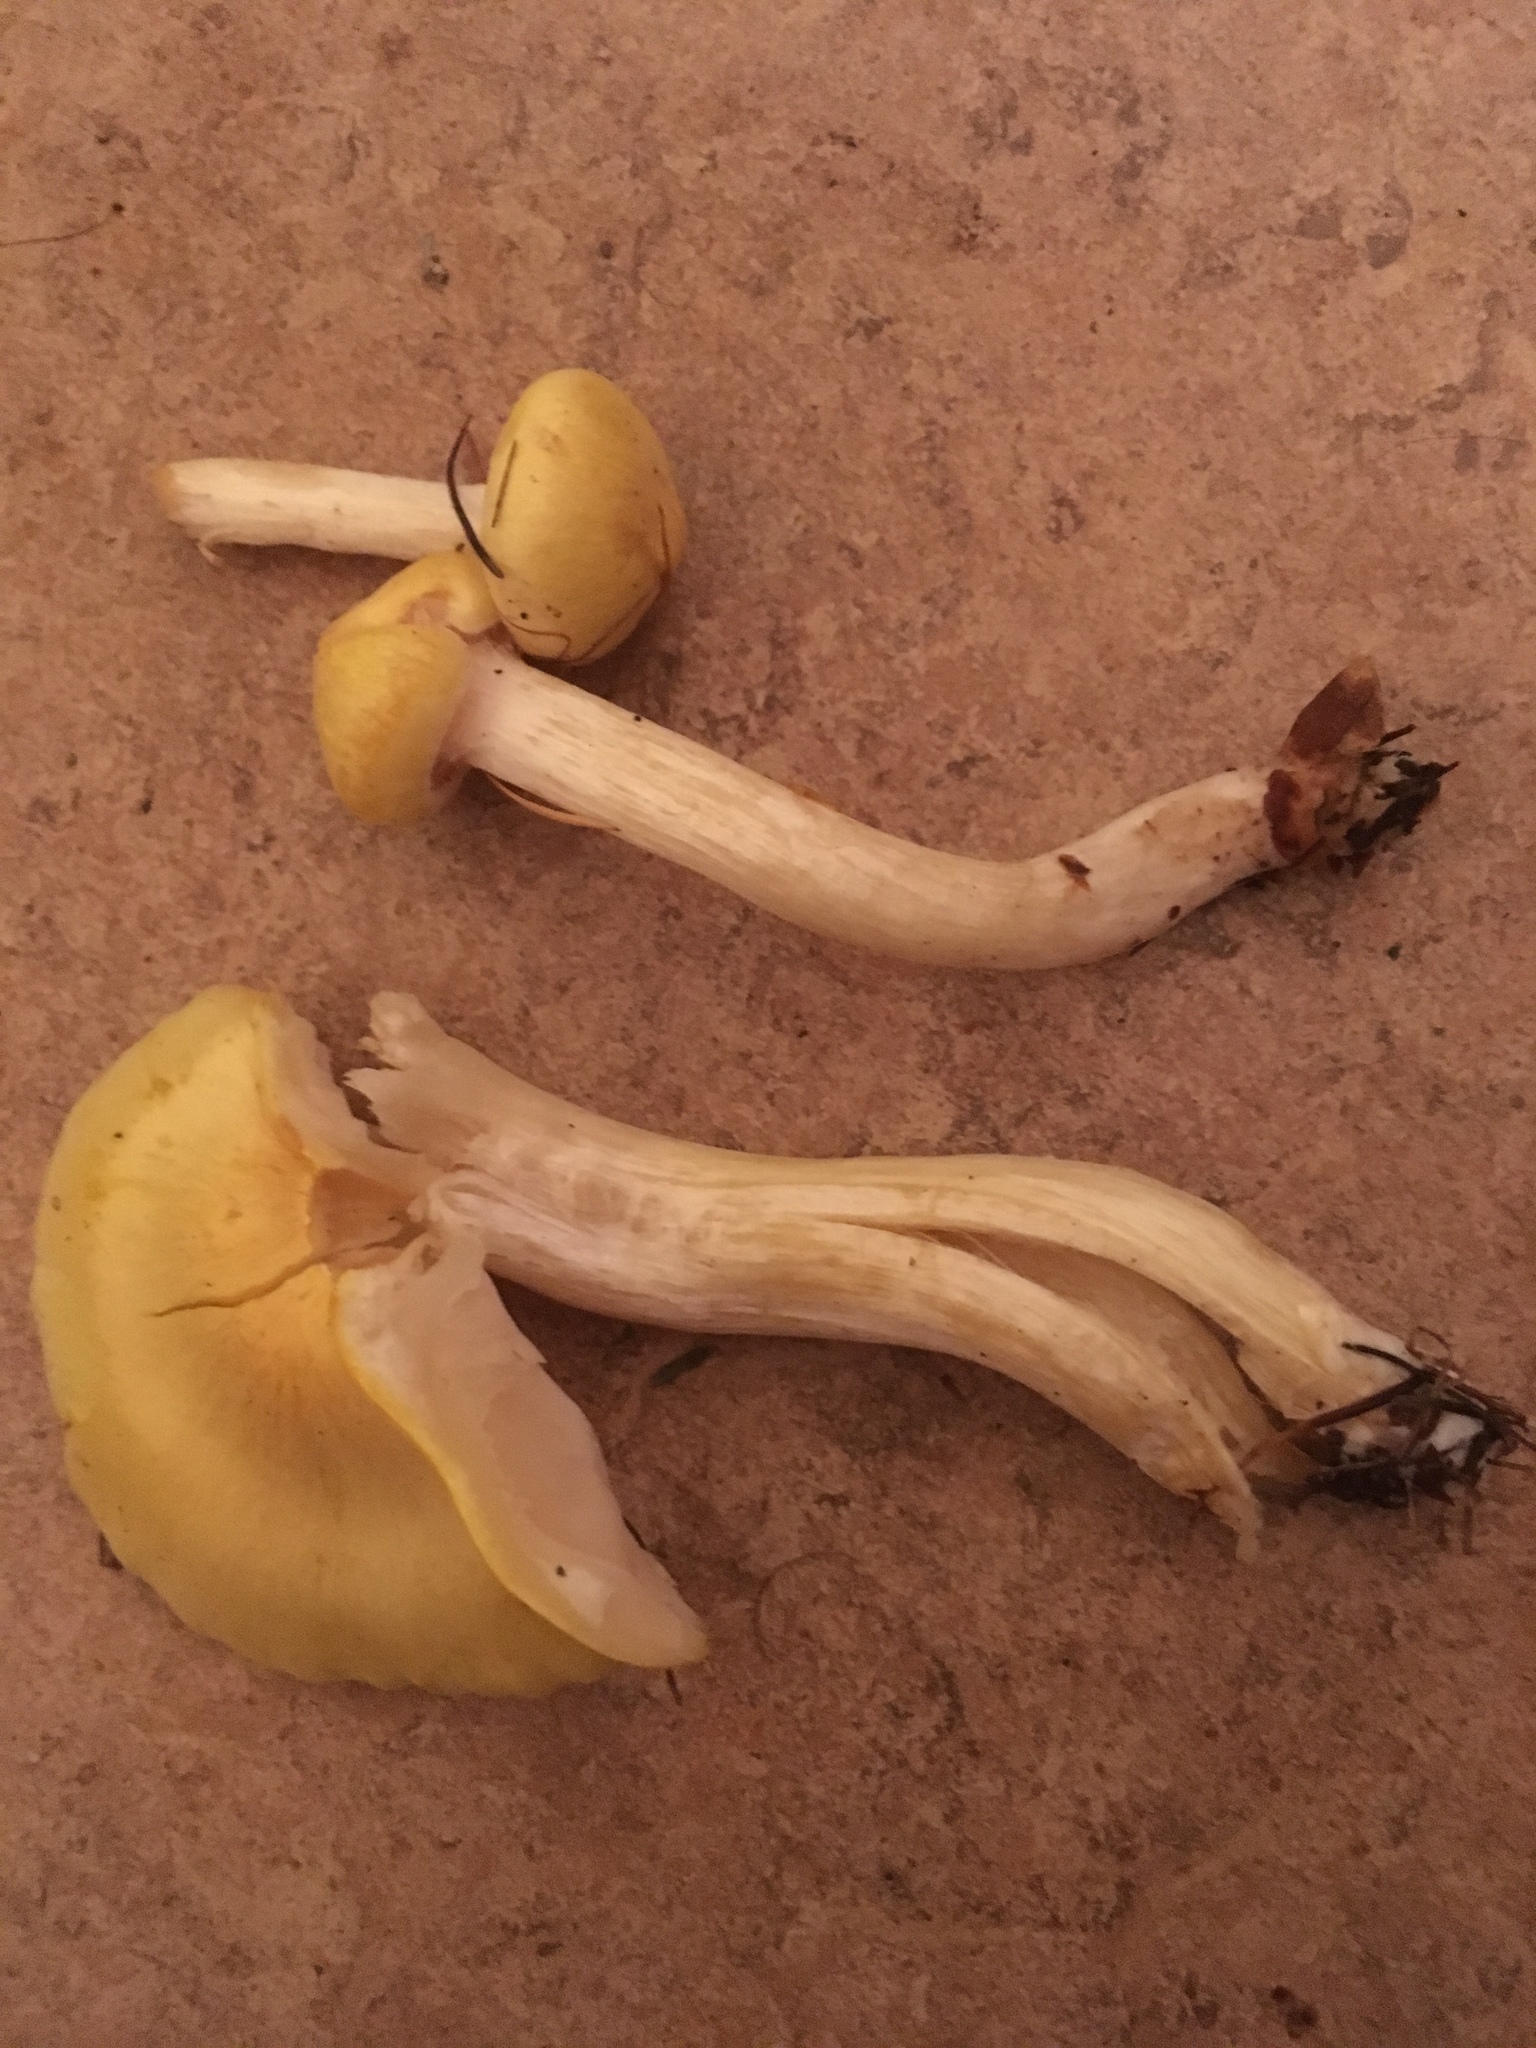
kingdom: Fungi
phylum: Basidiomycota
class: Agaricomycetes
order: Agaricales
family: Hygrophoraceae
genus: Hygrophorus
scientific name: Hygrophorus lucorum
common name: Larch woodwax
